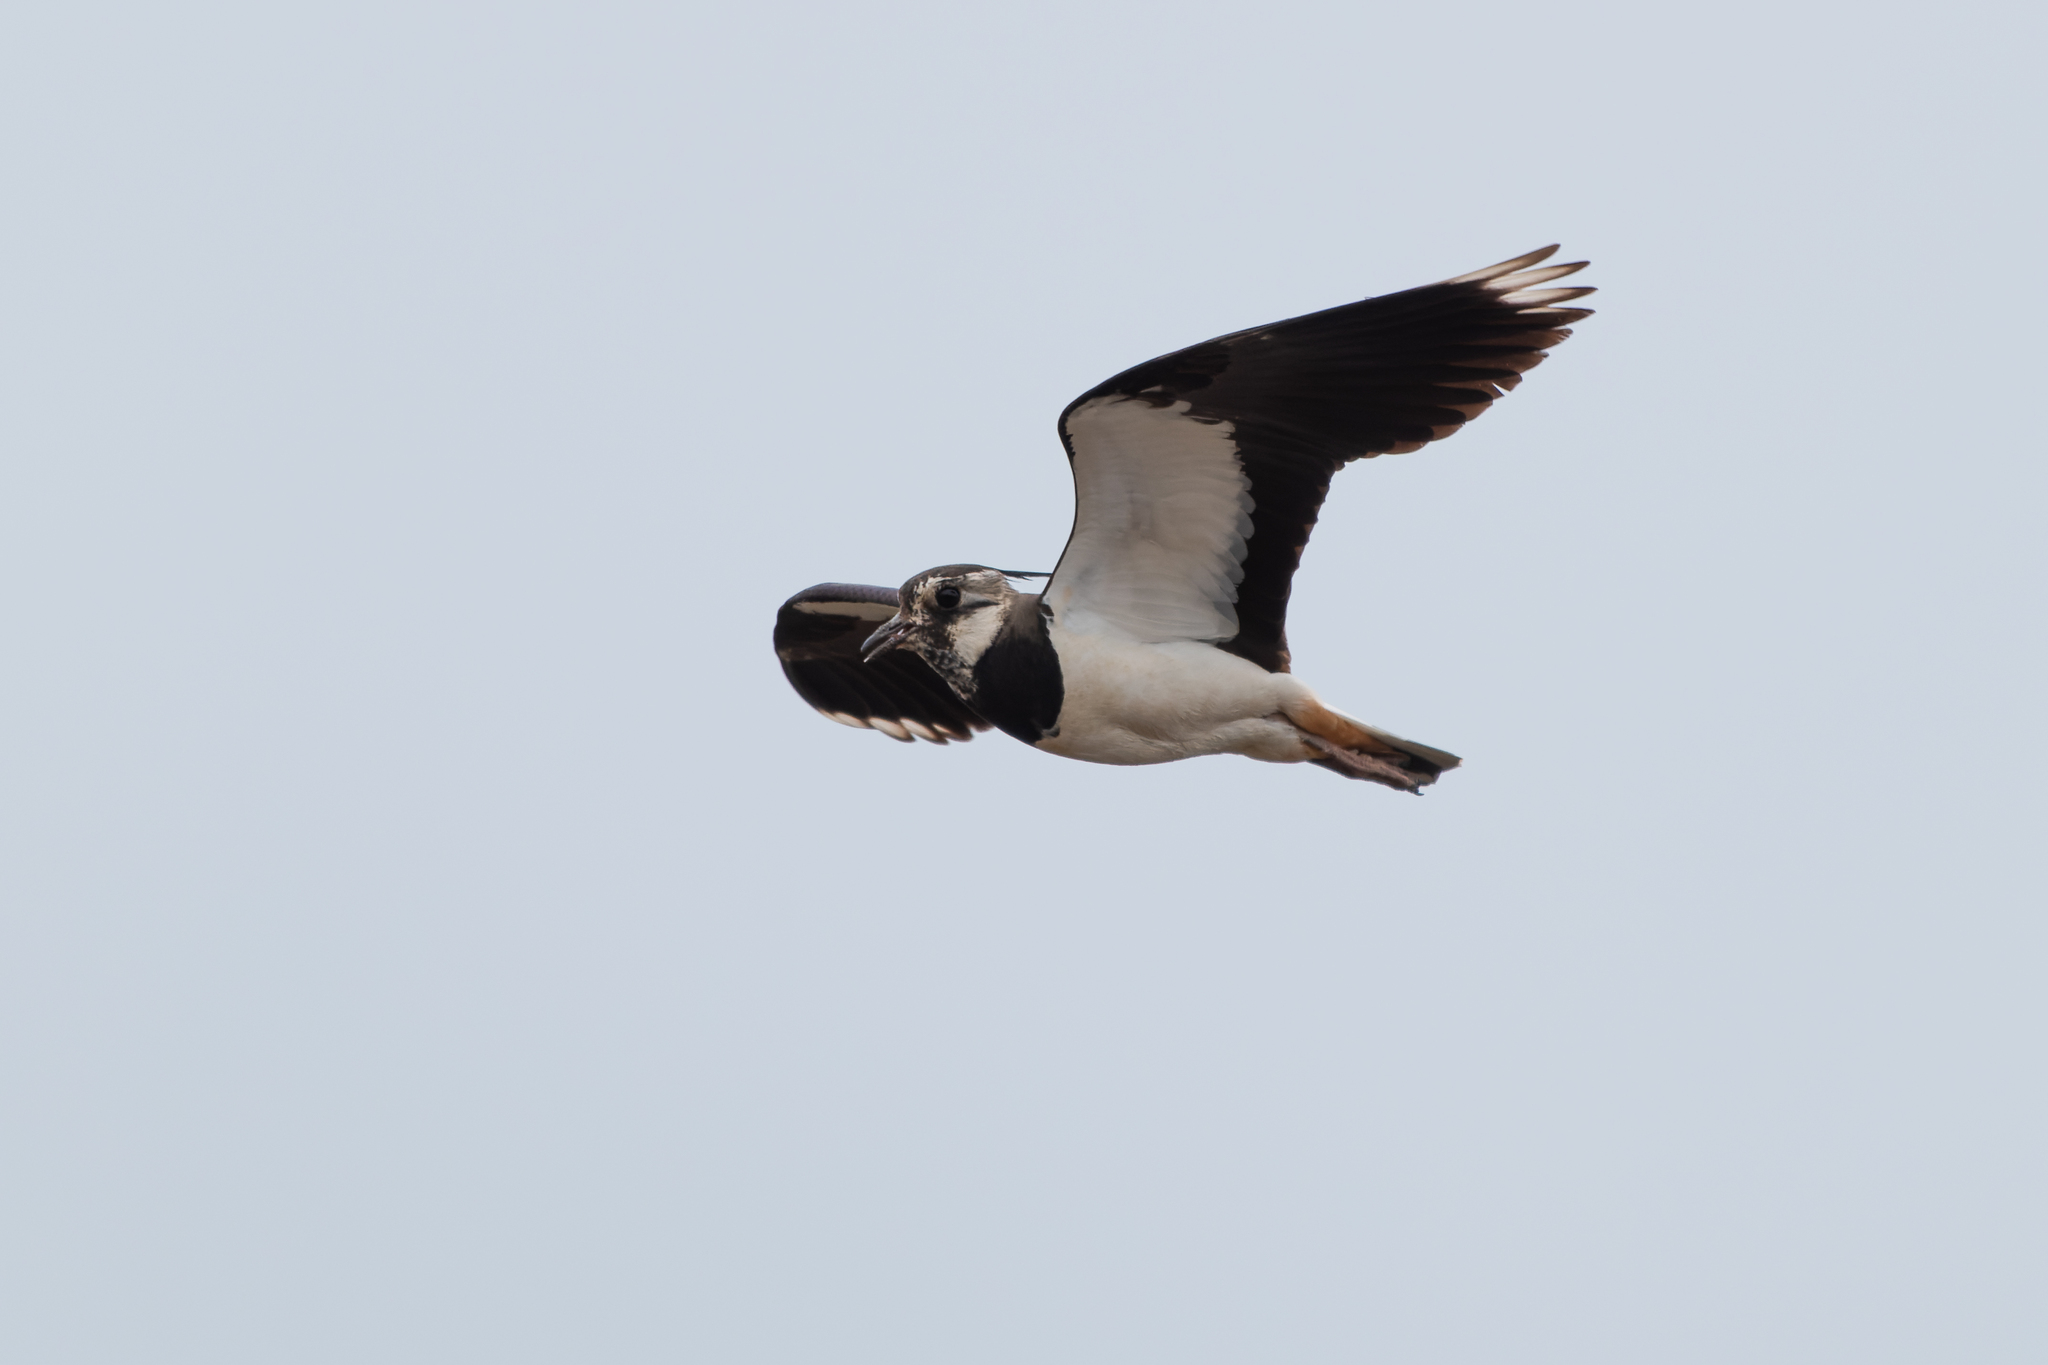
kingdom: Animalia
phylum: Chordata
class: Aves
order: Charadriiformes
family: Charadriidae
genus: Vanellus
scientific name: Vanellus vanellus
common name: Northern lapwing
